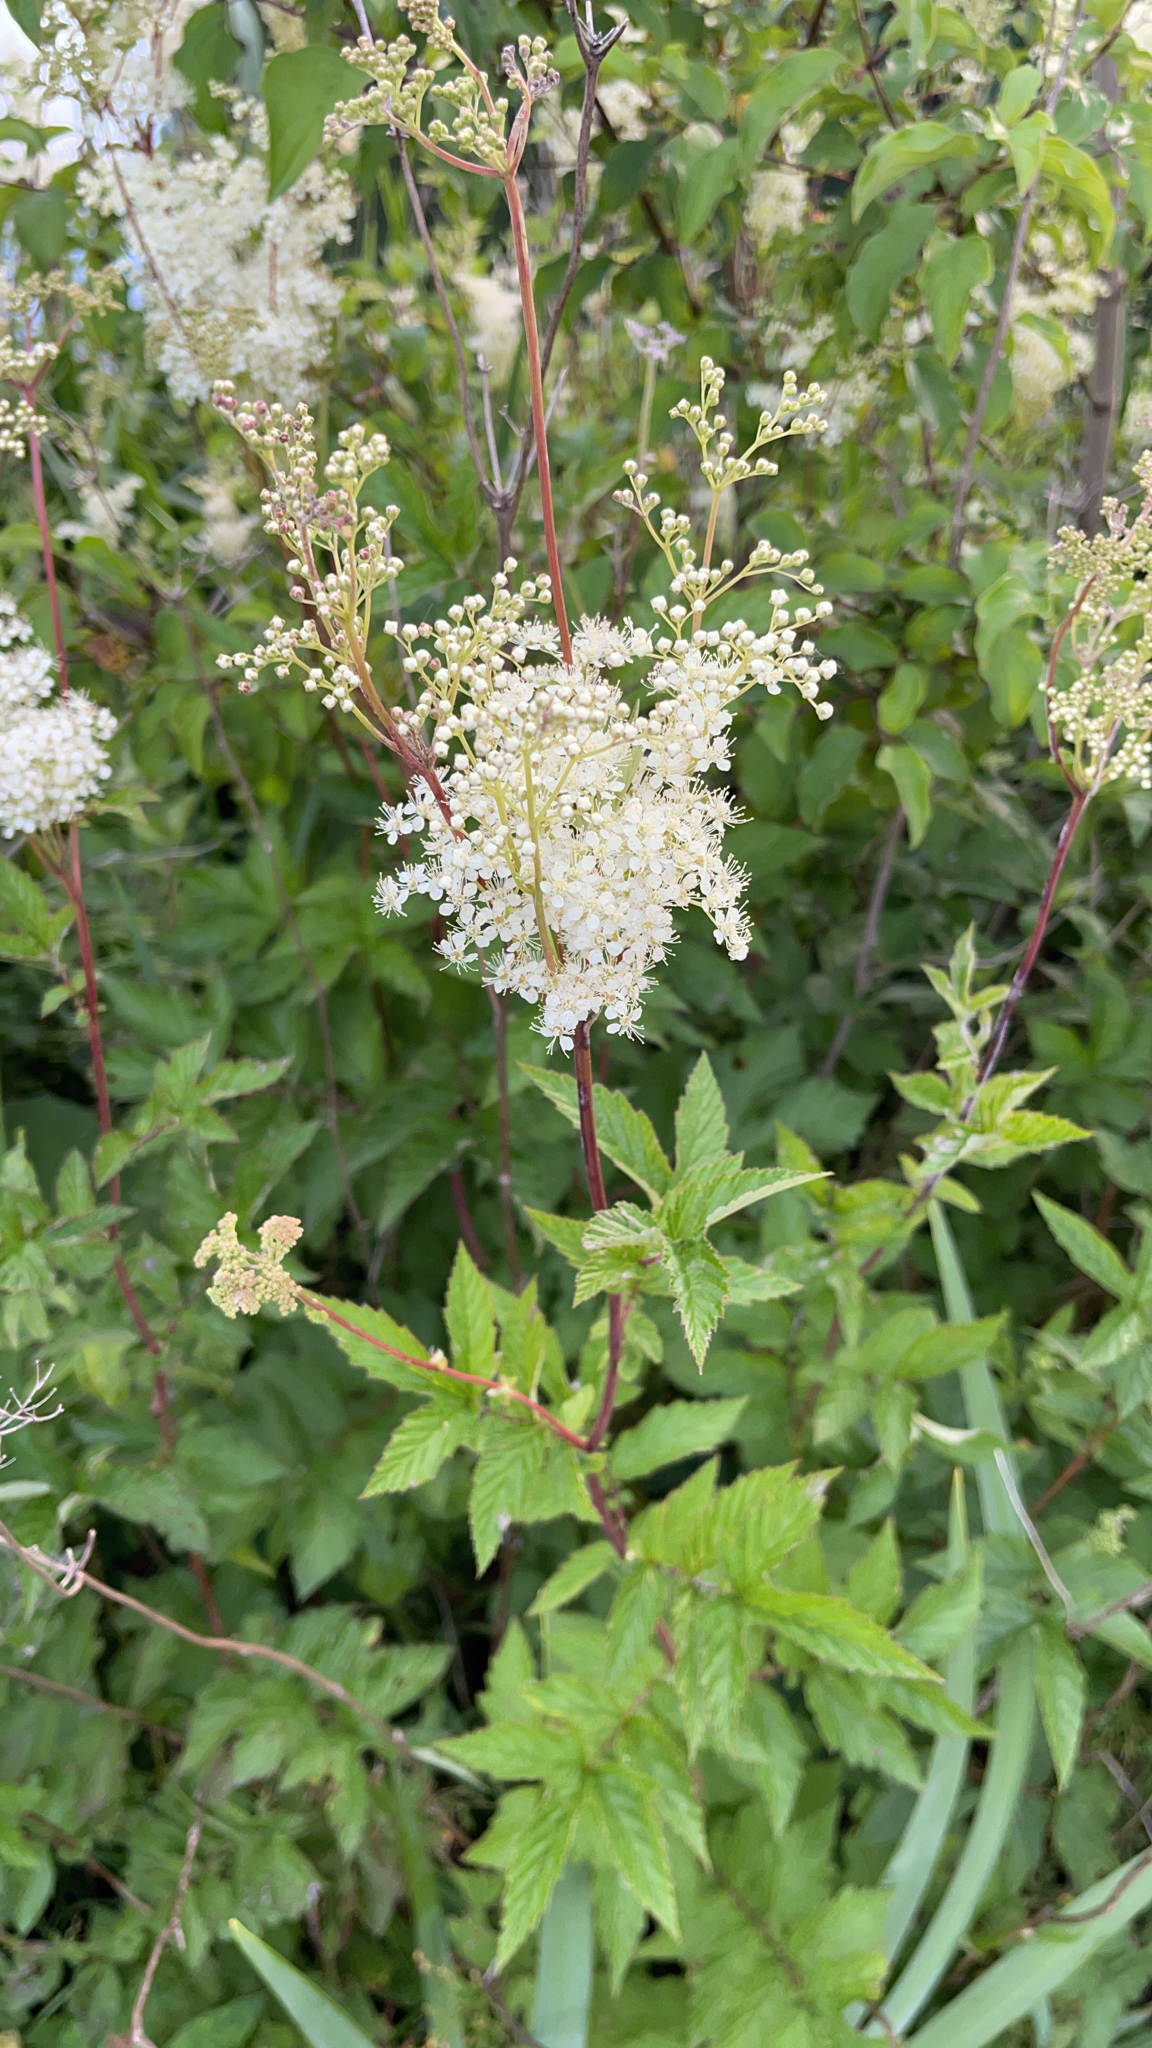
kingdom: Plantae
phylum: Tracheophyta
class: Magnoliopsida
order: Rosales
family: Rosaceae
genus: Filipendula
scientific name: Filipendula ulmaria
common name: Meadowsweet
